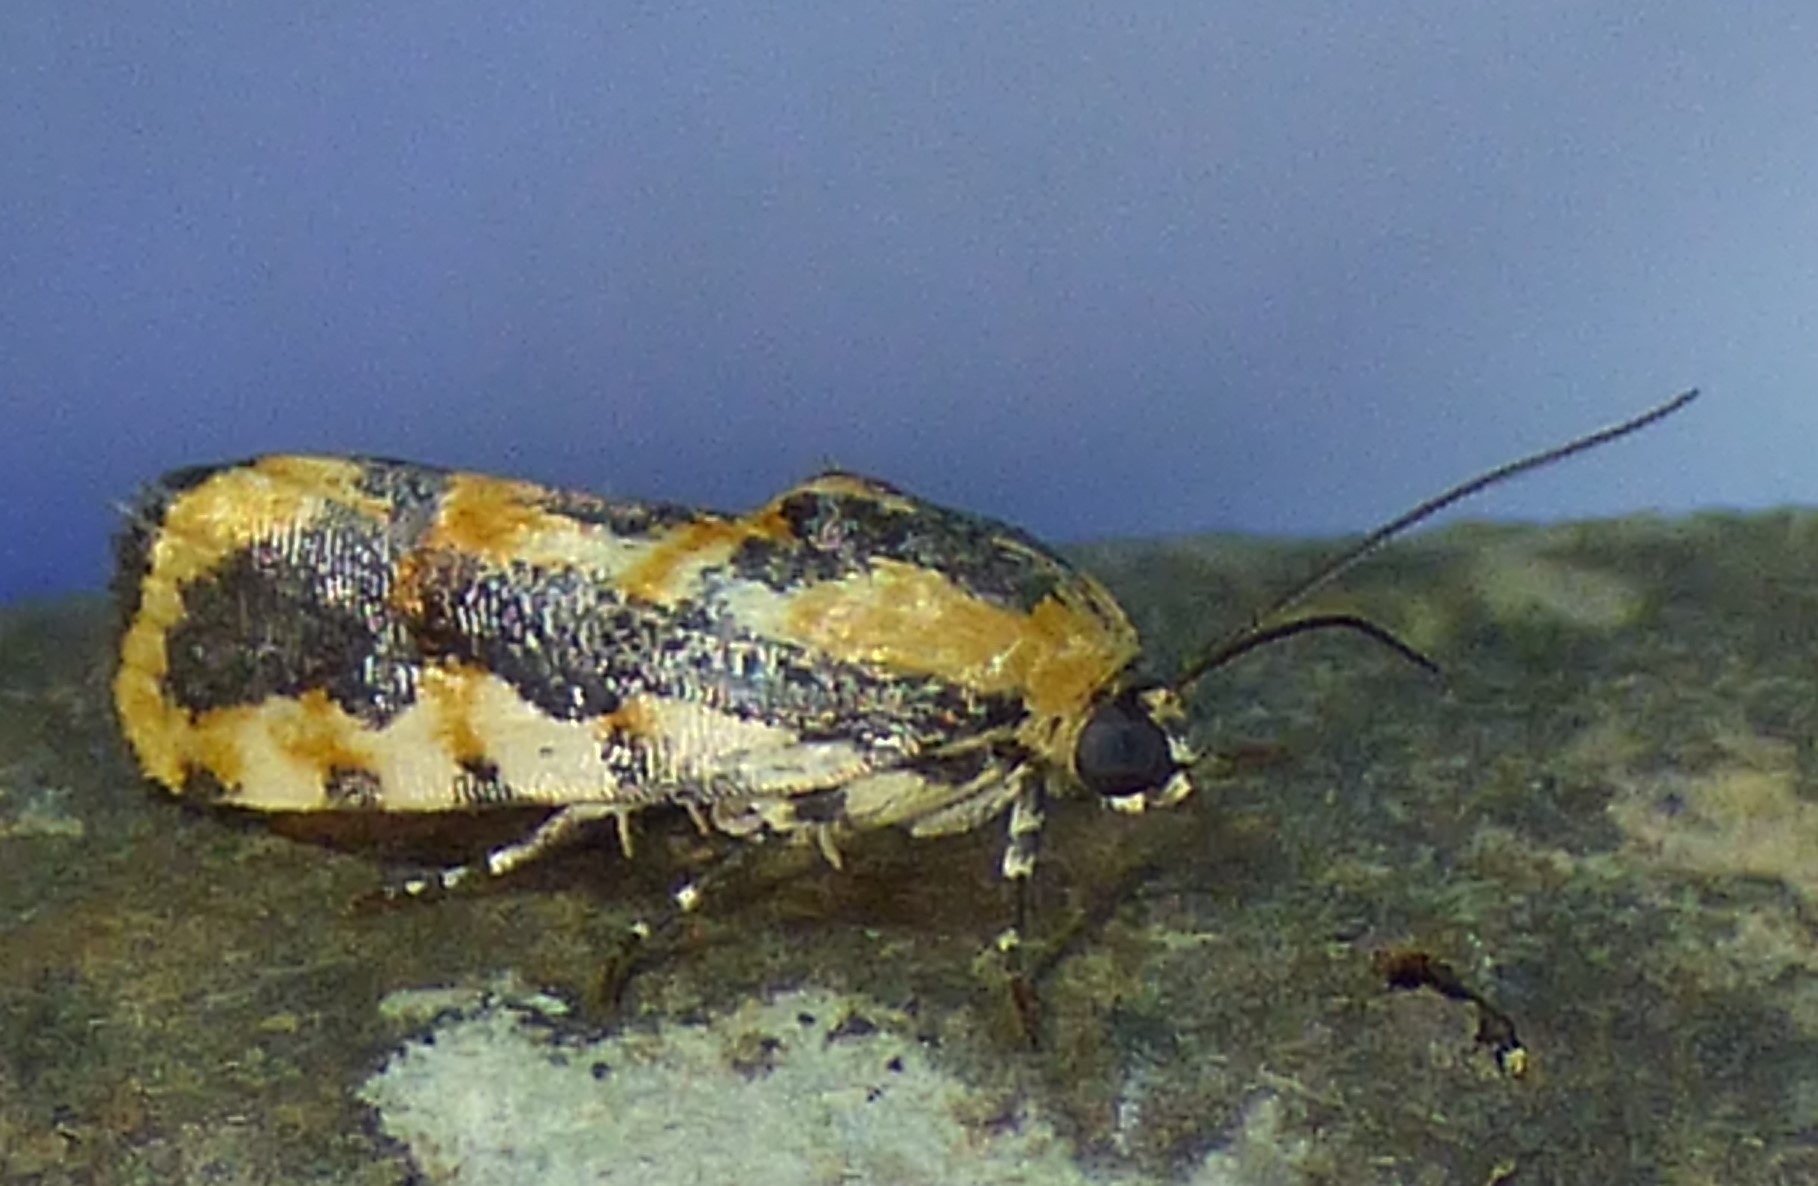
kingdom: Animalia
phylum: Arthropoda
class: Insecta
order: Lepidoptera
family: Noctuidae
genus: Acontia
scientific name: Acontia leo
